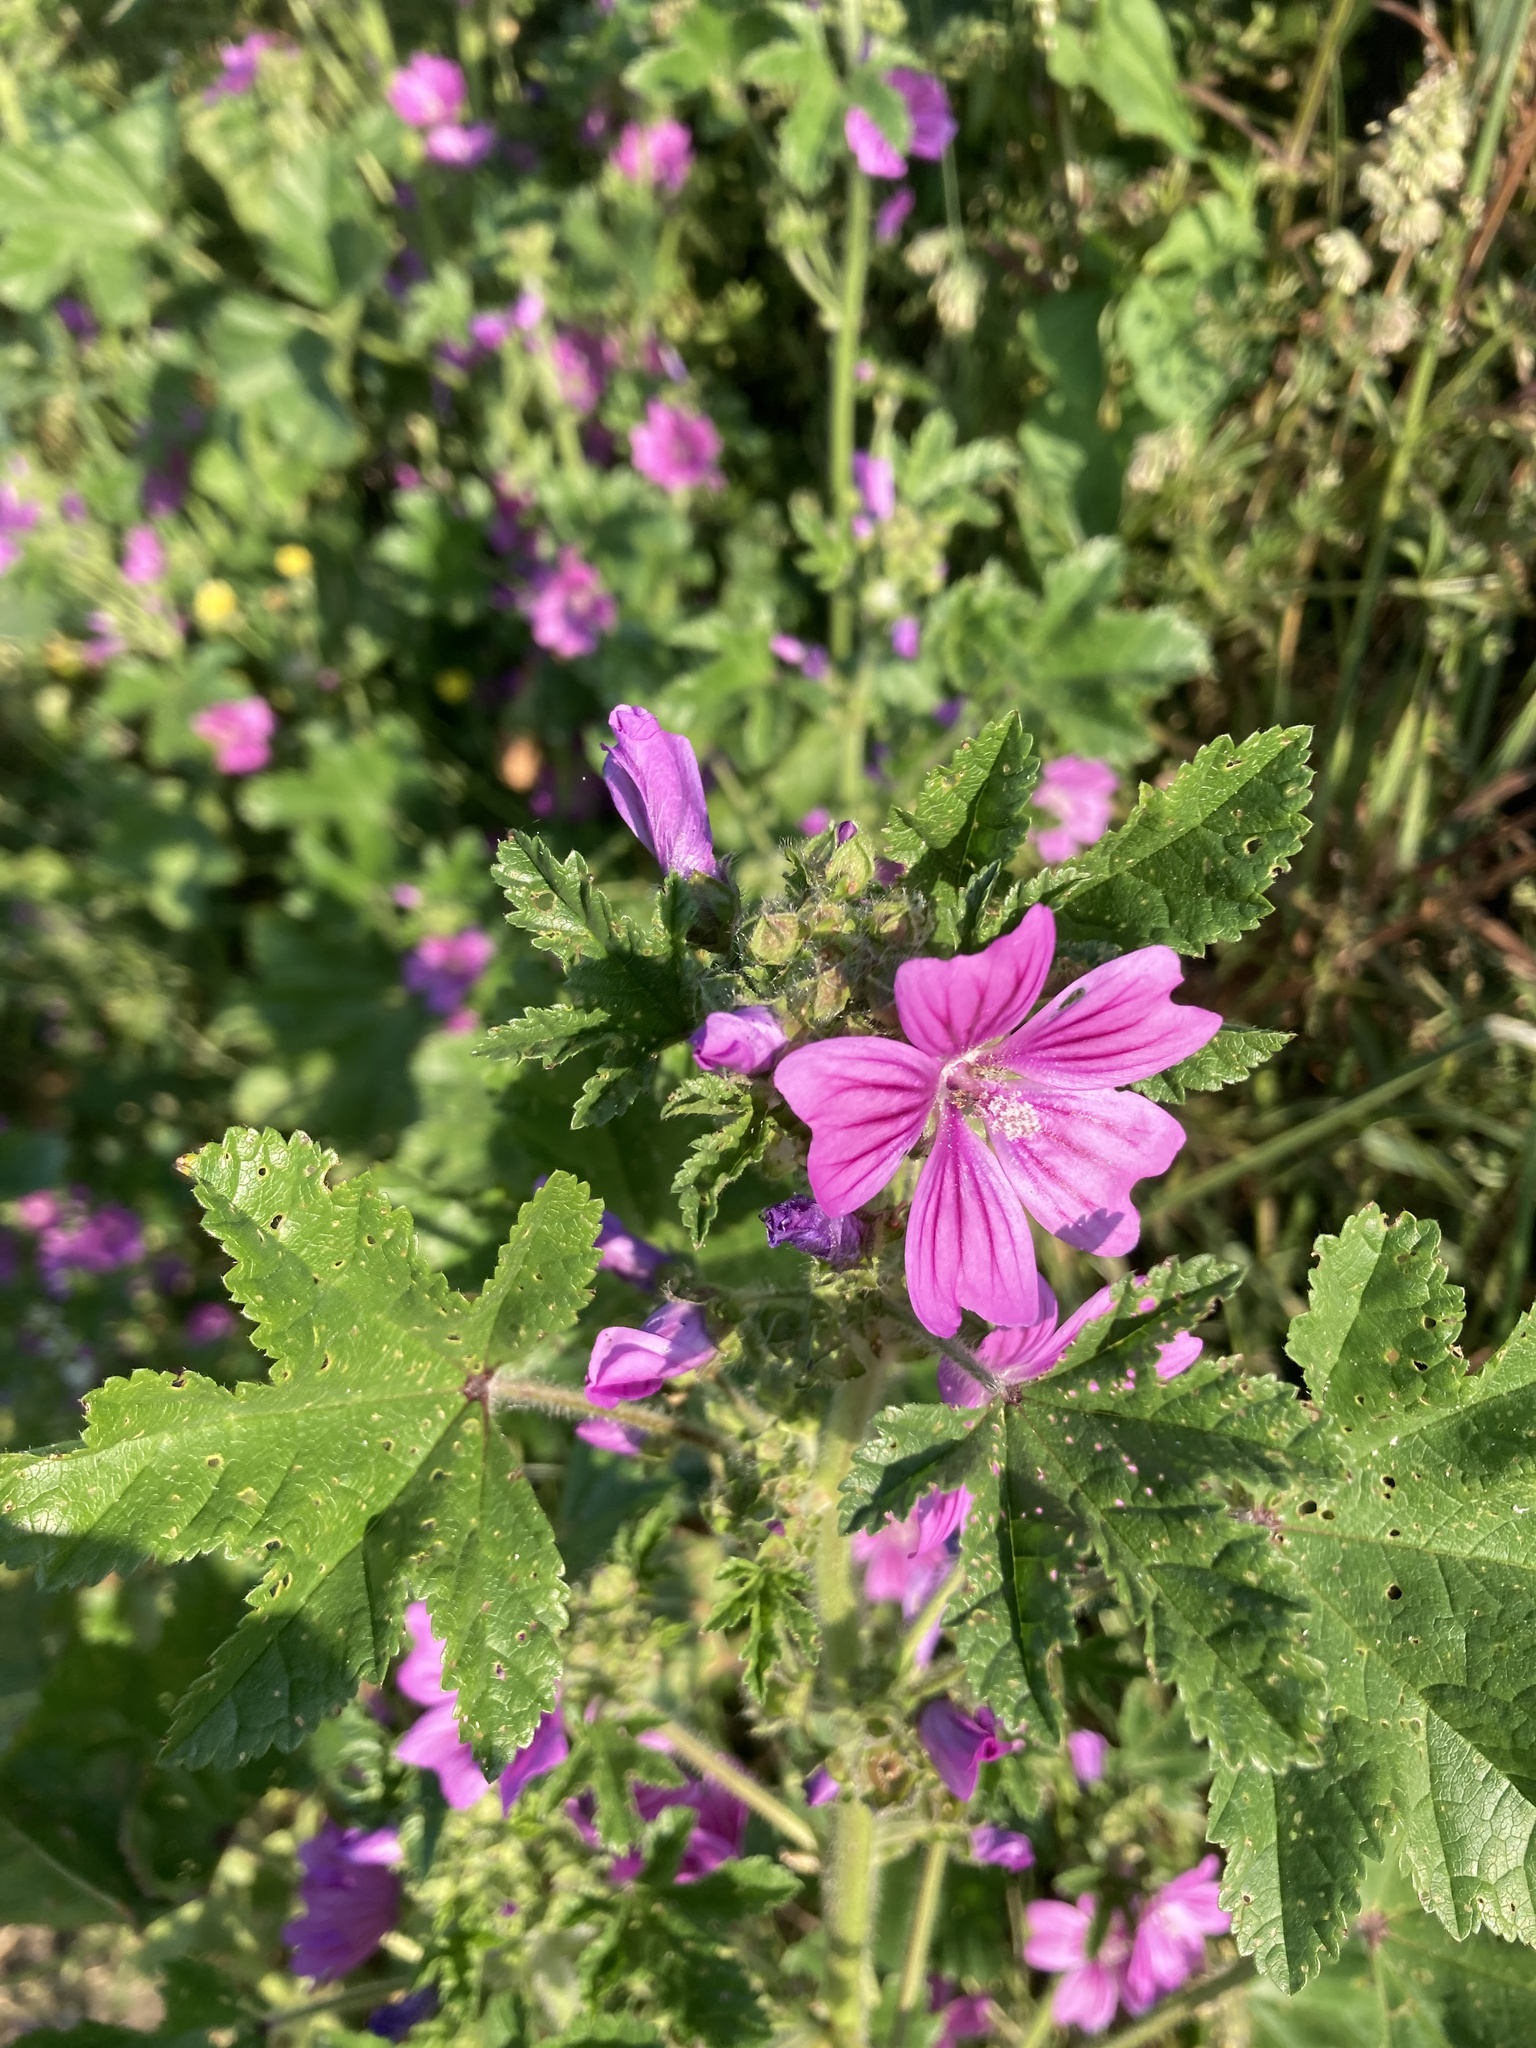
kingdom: Plantae
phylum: Tracheophyta
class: Magnoliopsida
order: Malvales
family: Malvaceae
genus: Malva
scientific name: Malva sylvestris
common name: Common mallow
